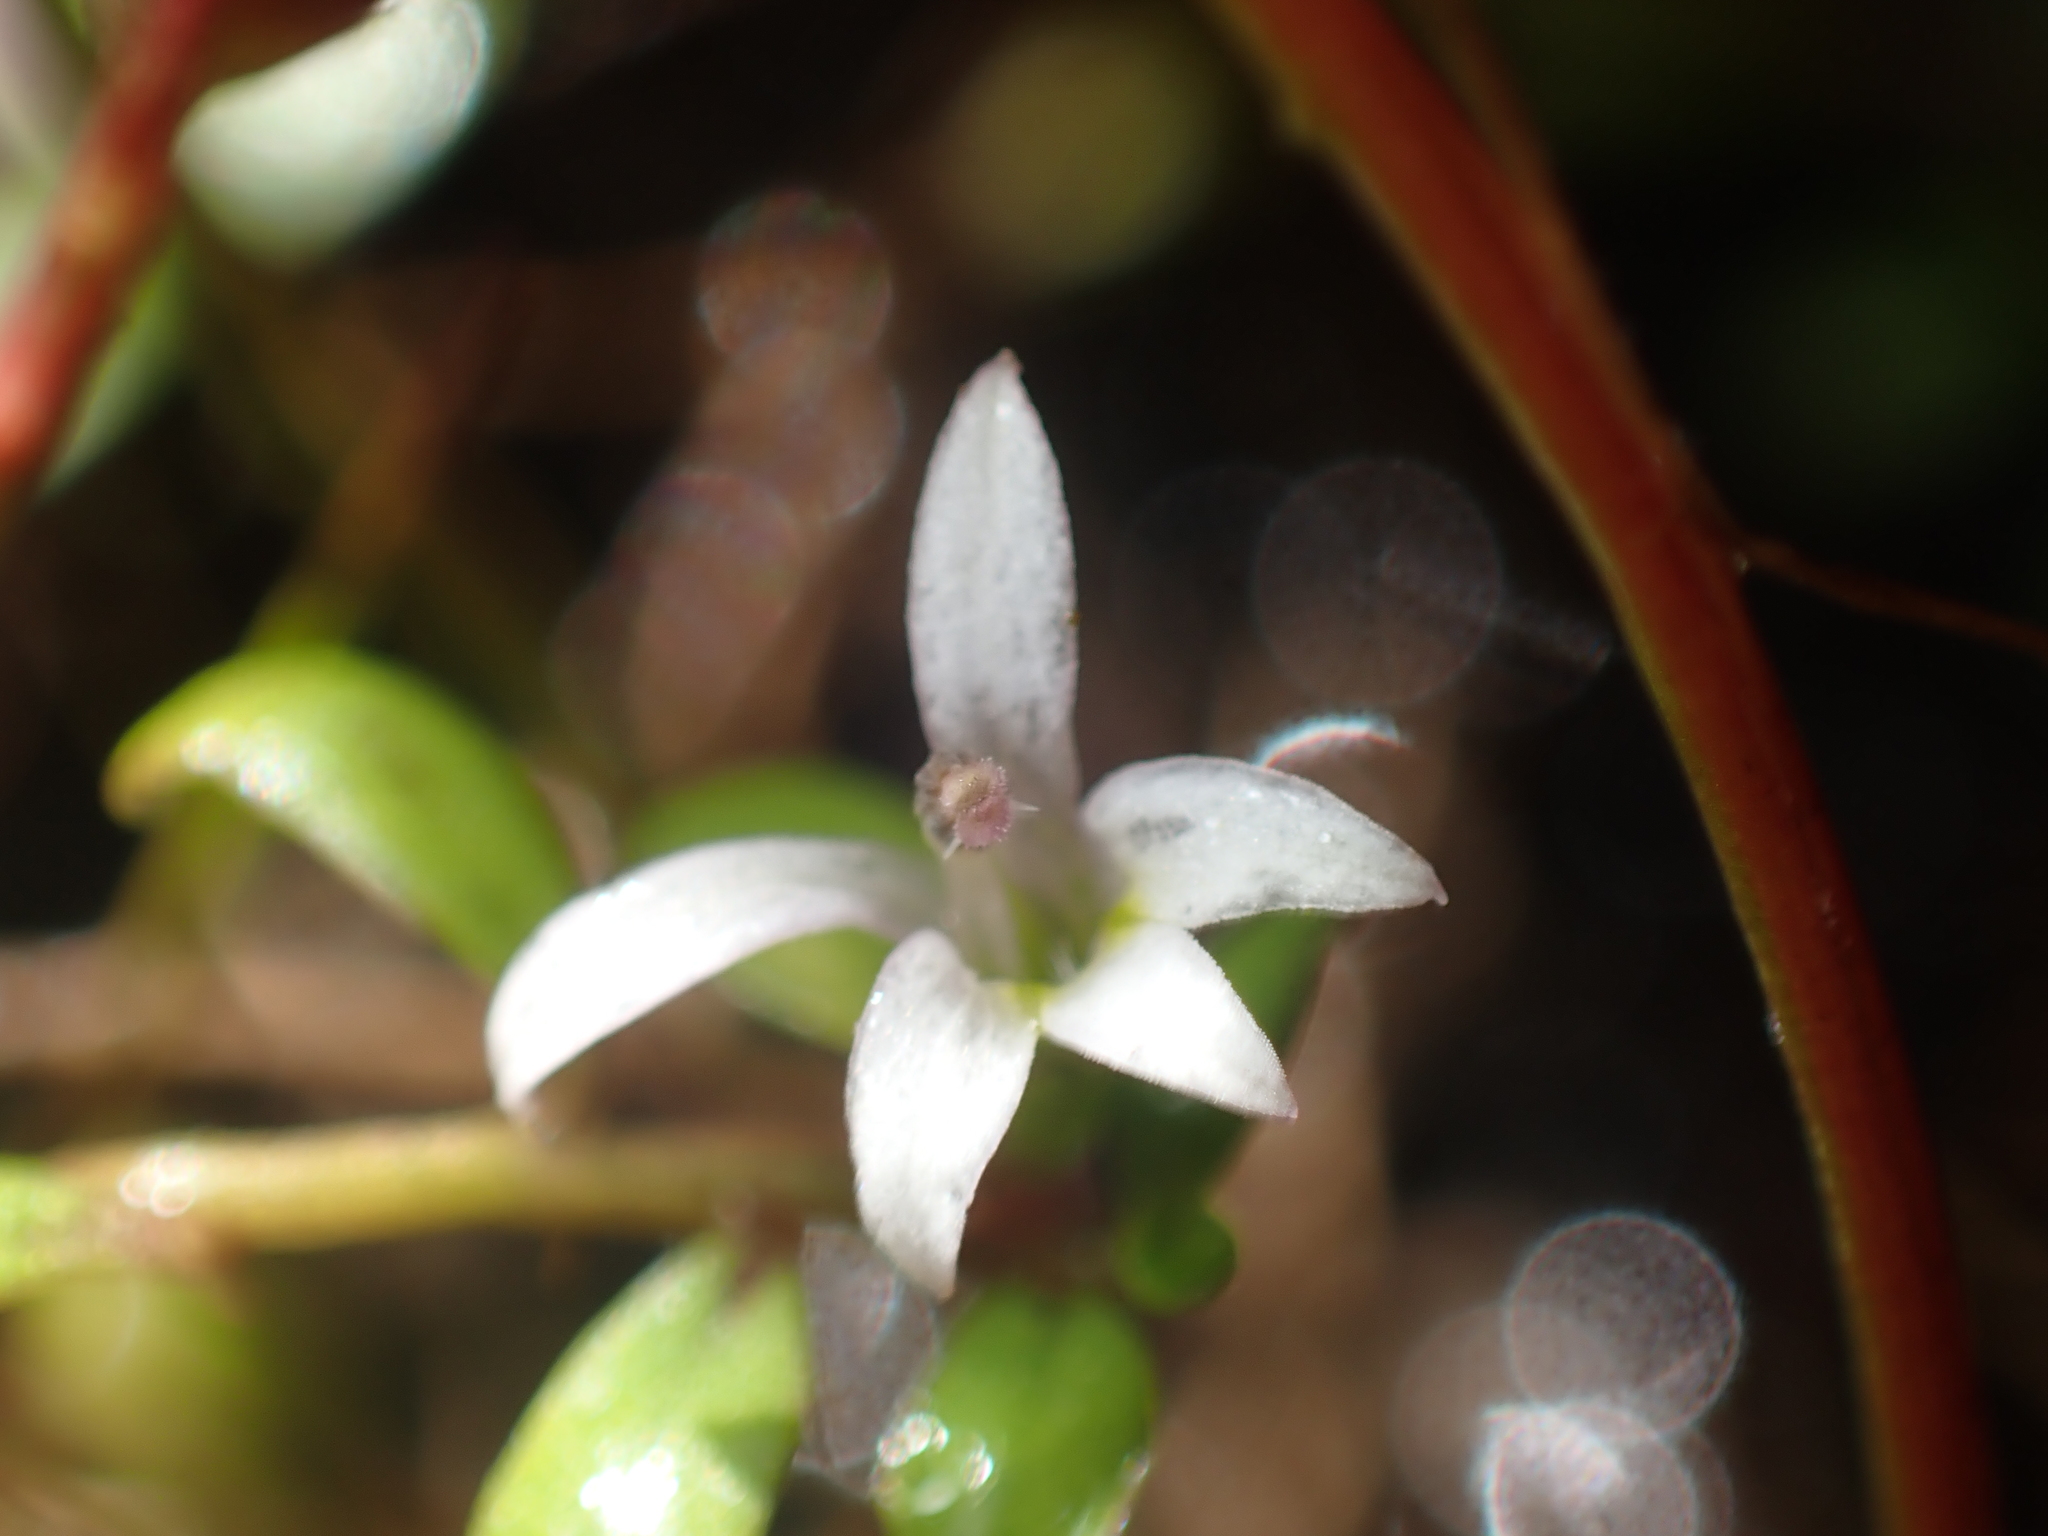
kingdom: Plantae
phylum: Tracheophyta
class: Magnoliopsida
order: Asterales
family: Campanulaceae
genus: Lobelia
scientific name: Lobelia fatiscens
